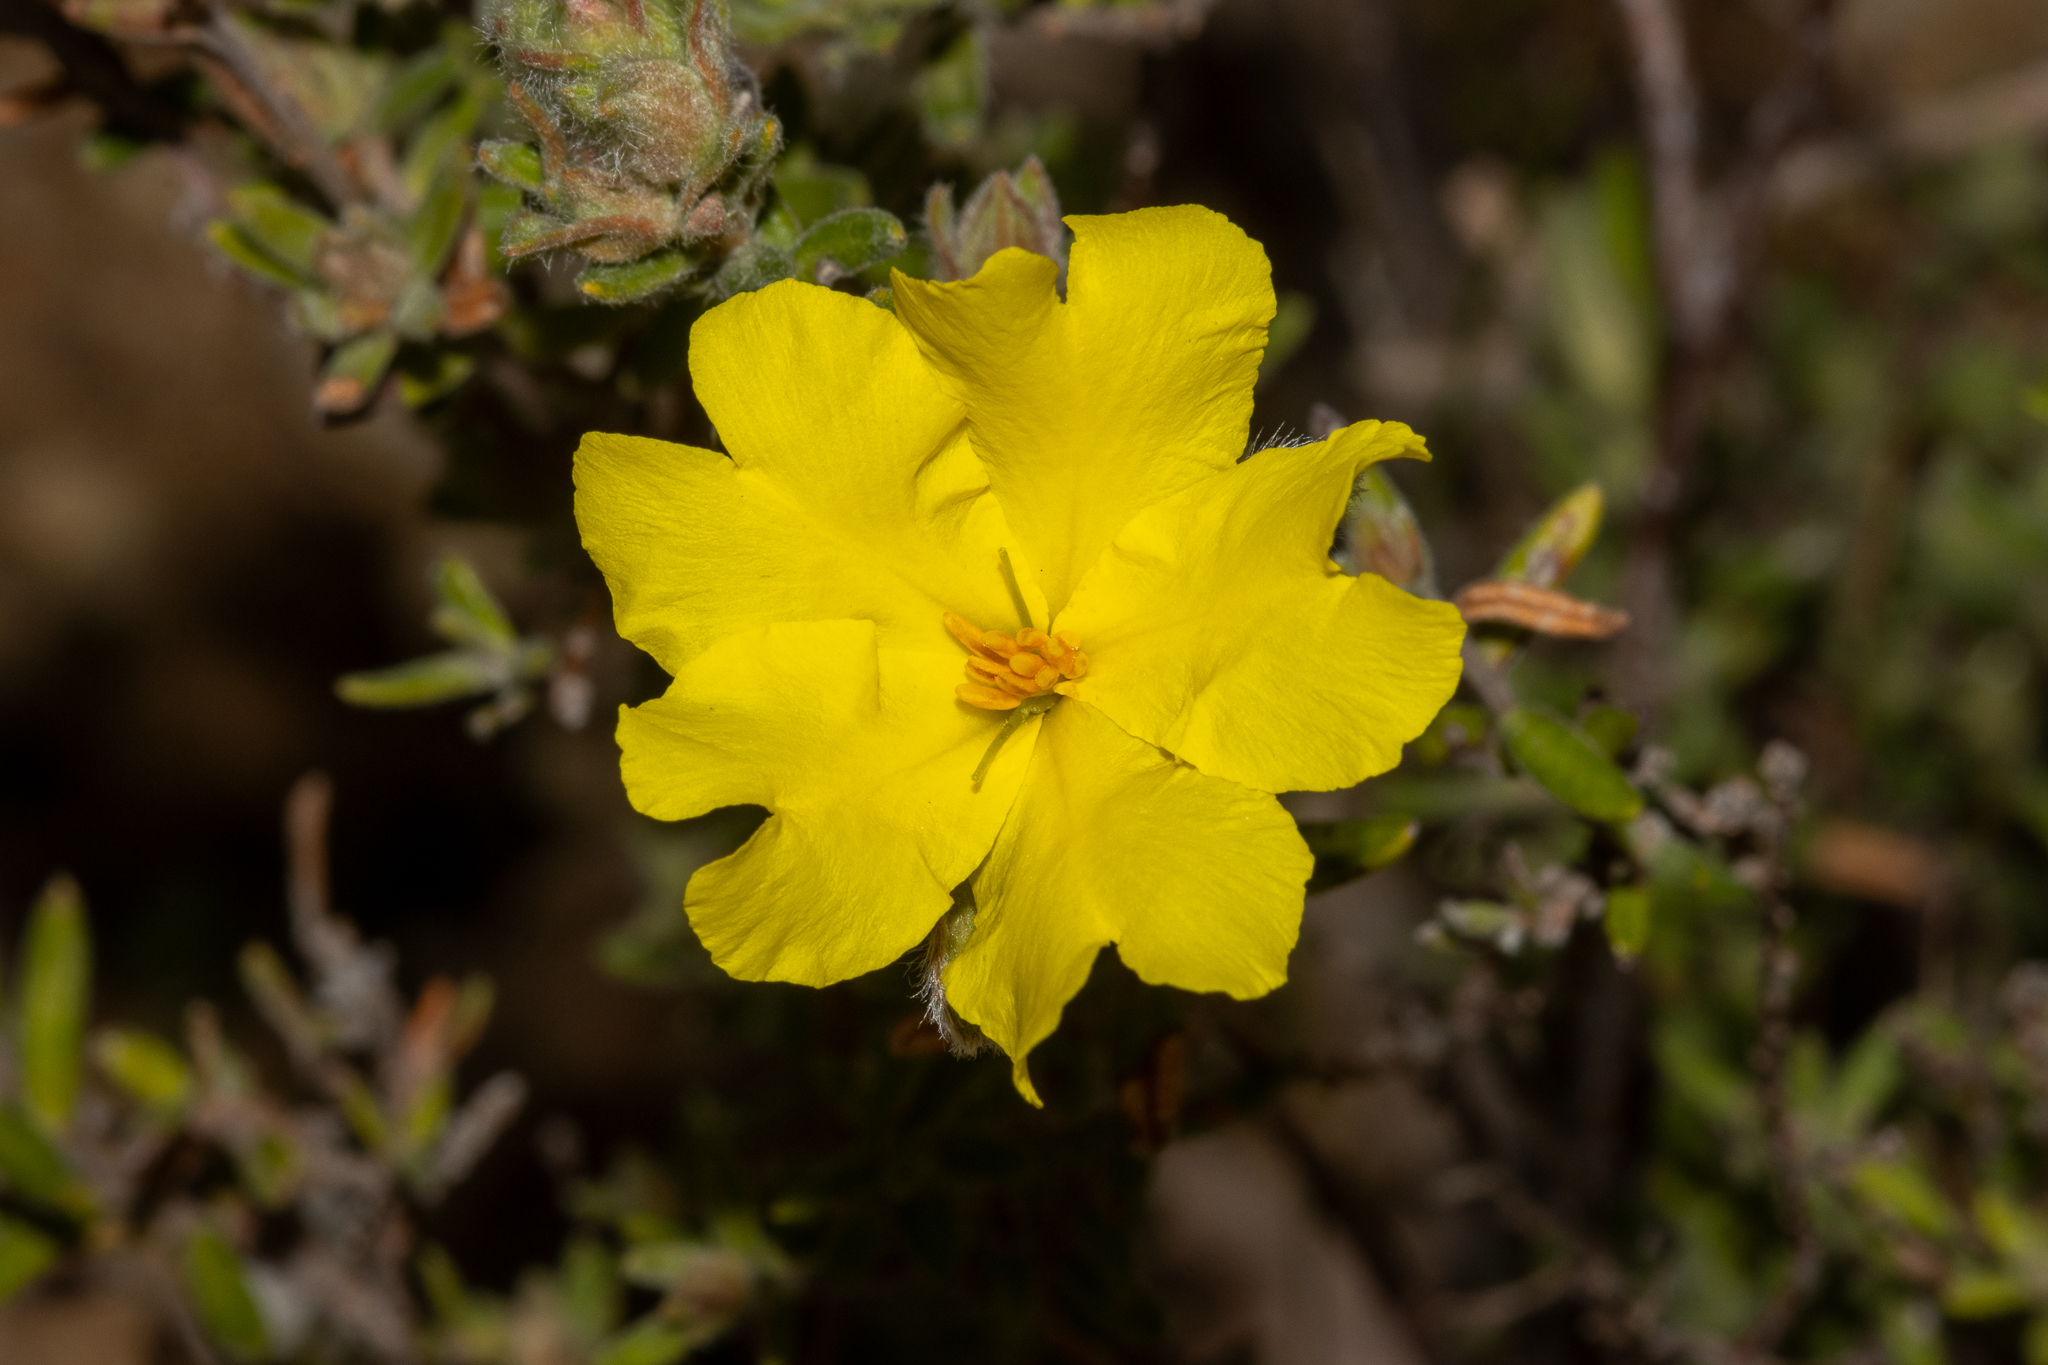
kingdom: Plantae
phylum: Tracheophyta
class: Magnoliopsida
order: Dilleniales
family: Dilleniaceae
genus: Hibbertia
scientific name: Hibbertia crinita
